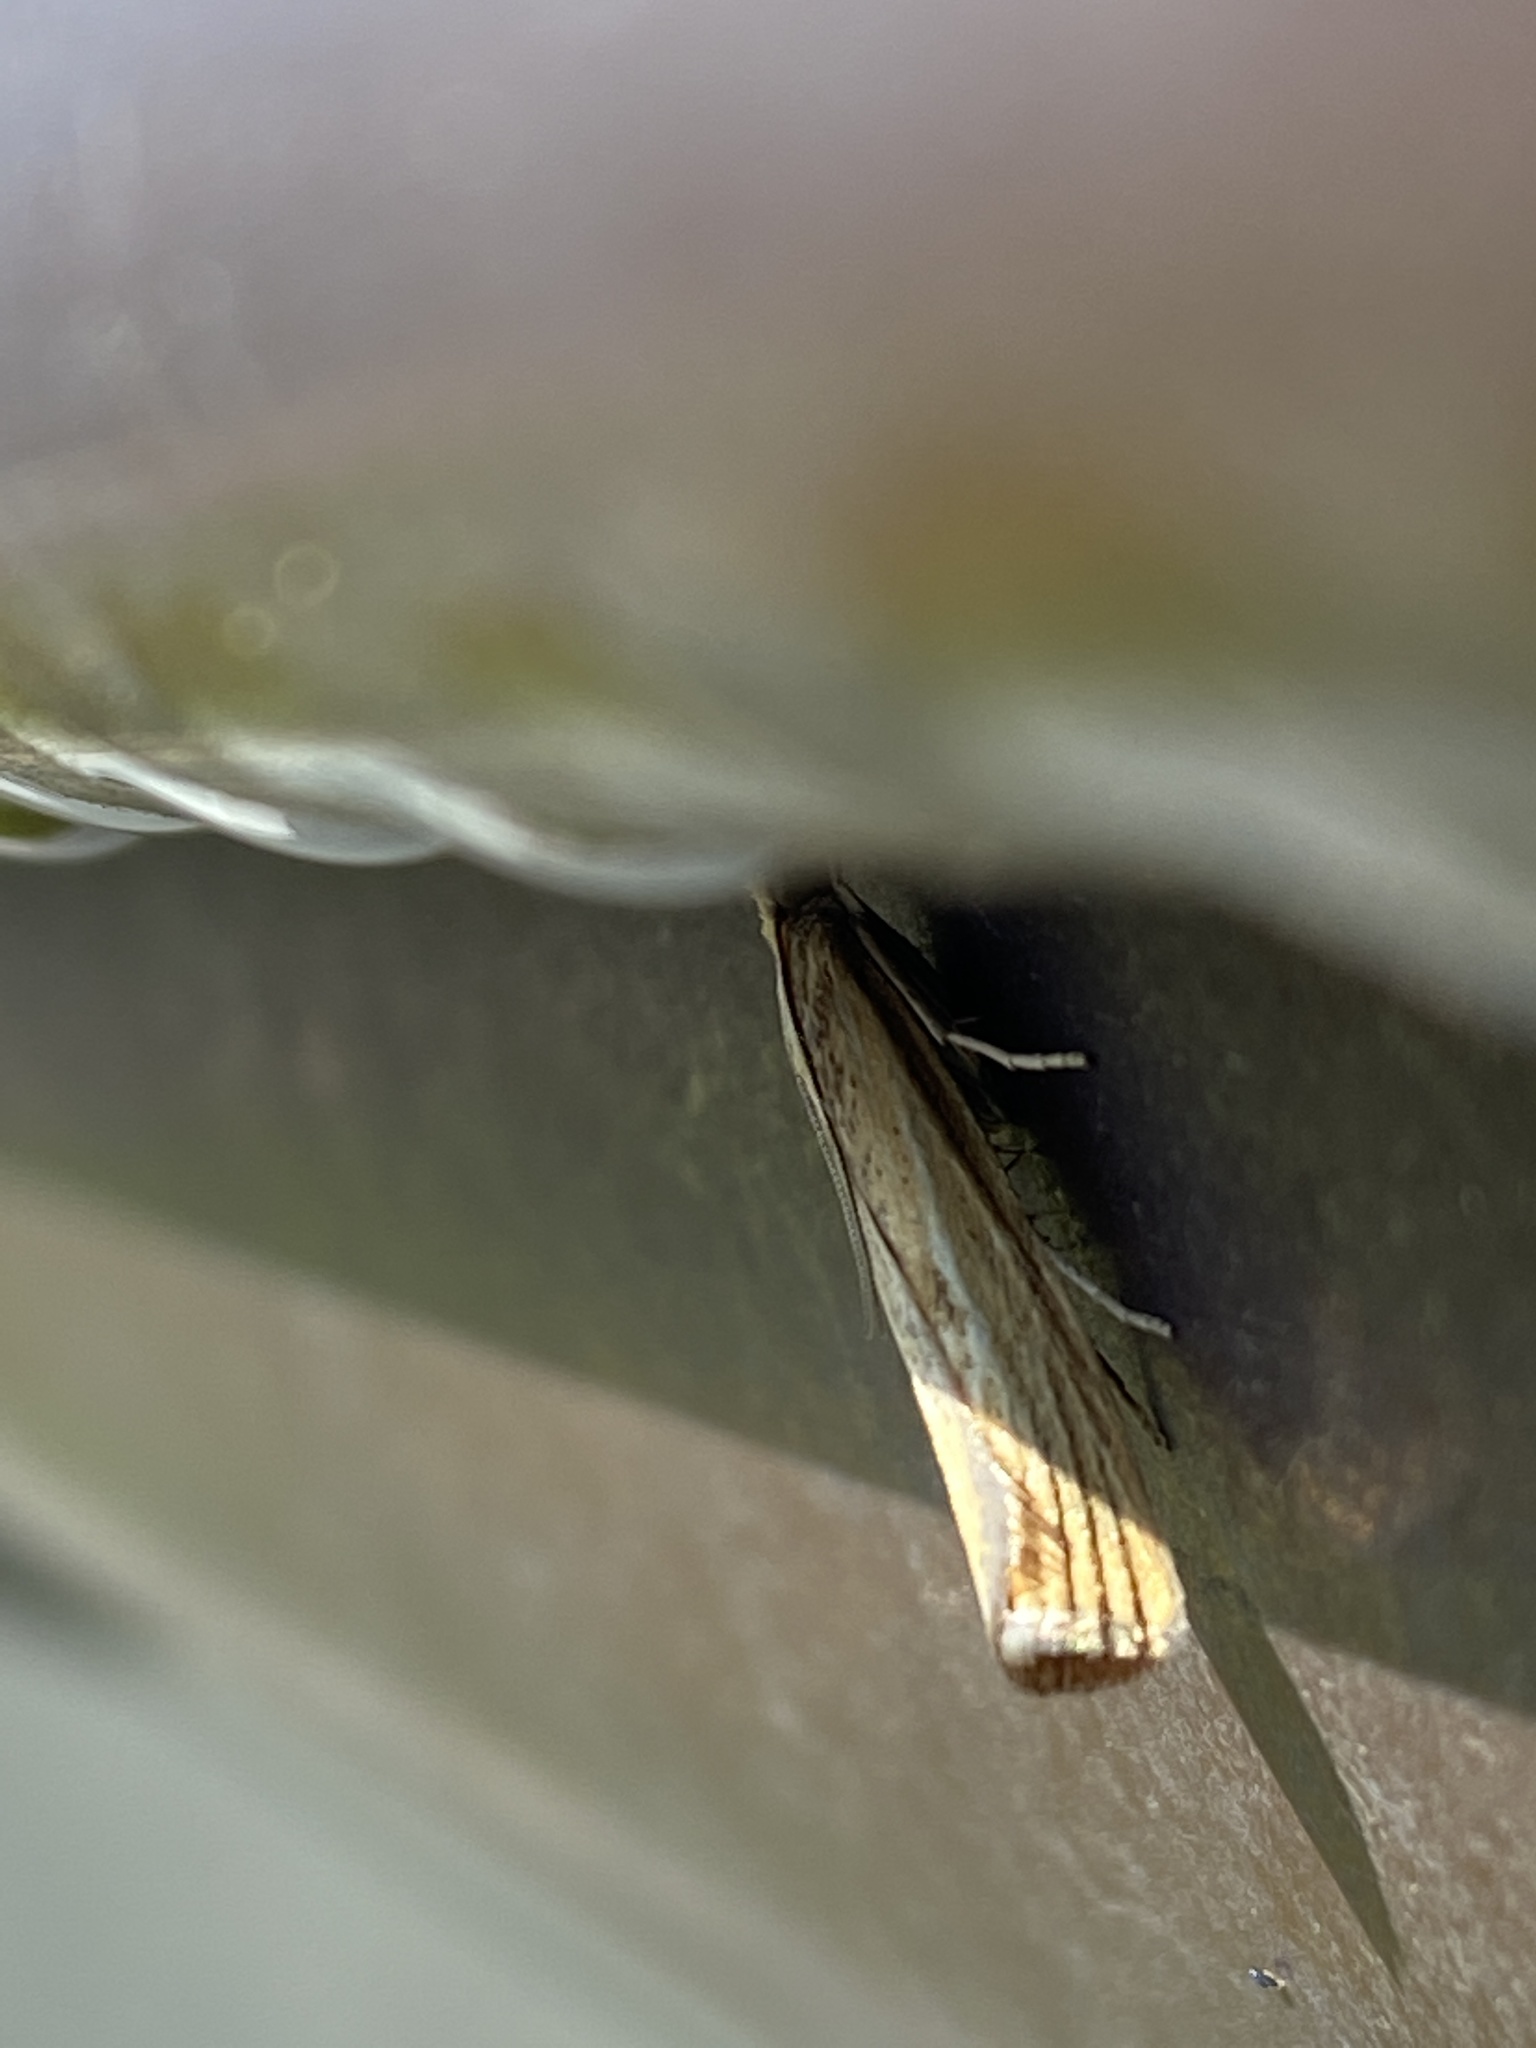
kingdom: Animalia
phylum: Arthropoda
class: Insecta
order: Lepidoptera
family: Crambidae
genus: Agriphila
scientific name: Agriphila inquinatella
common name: Barred grass-veneer
